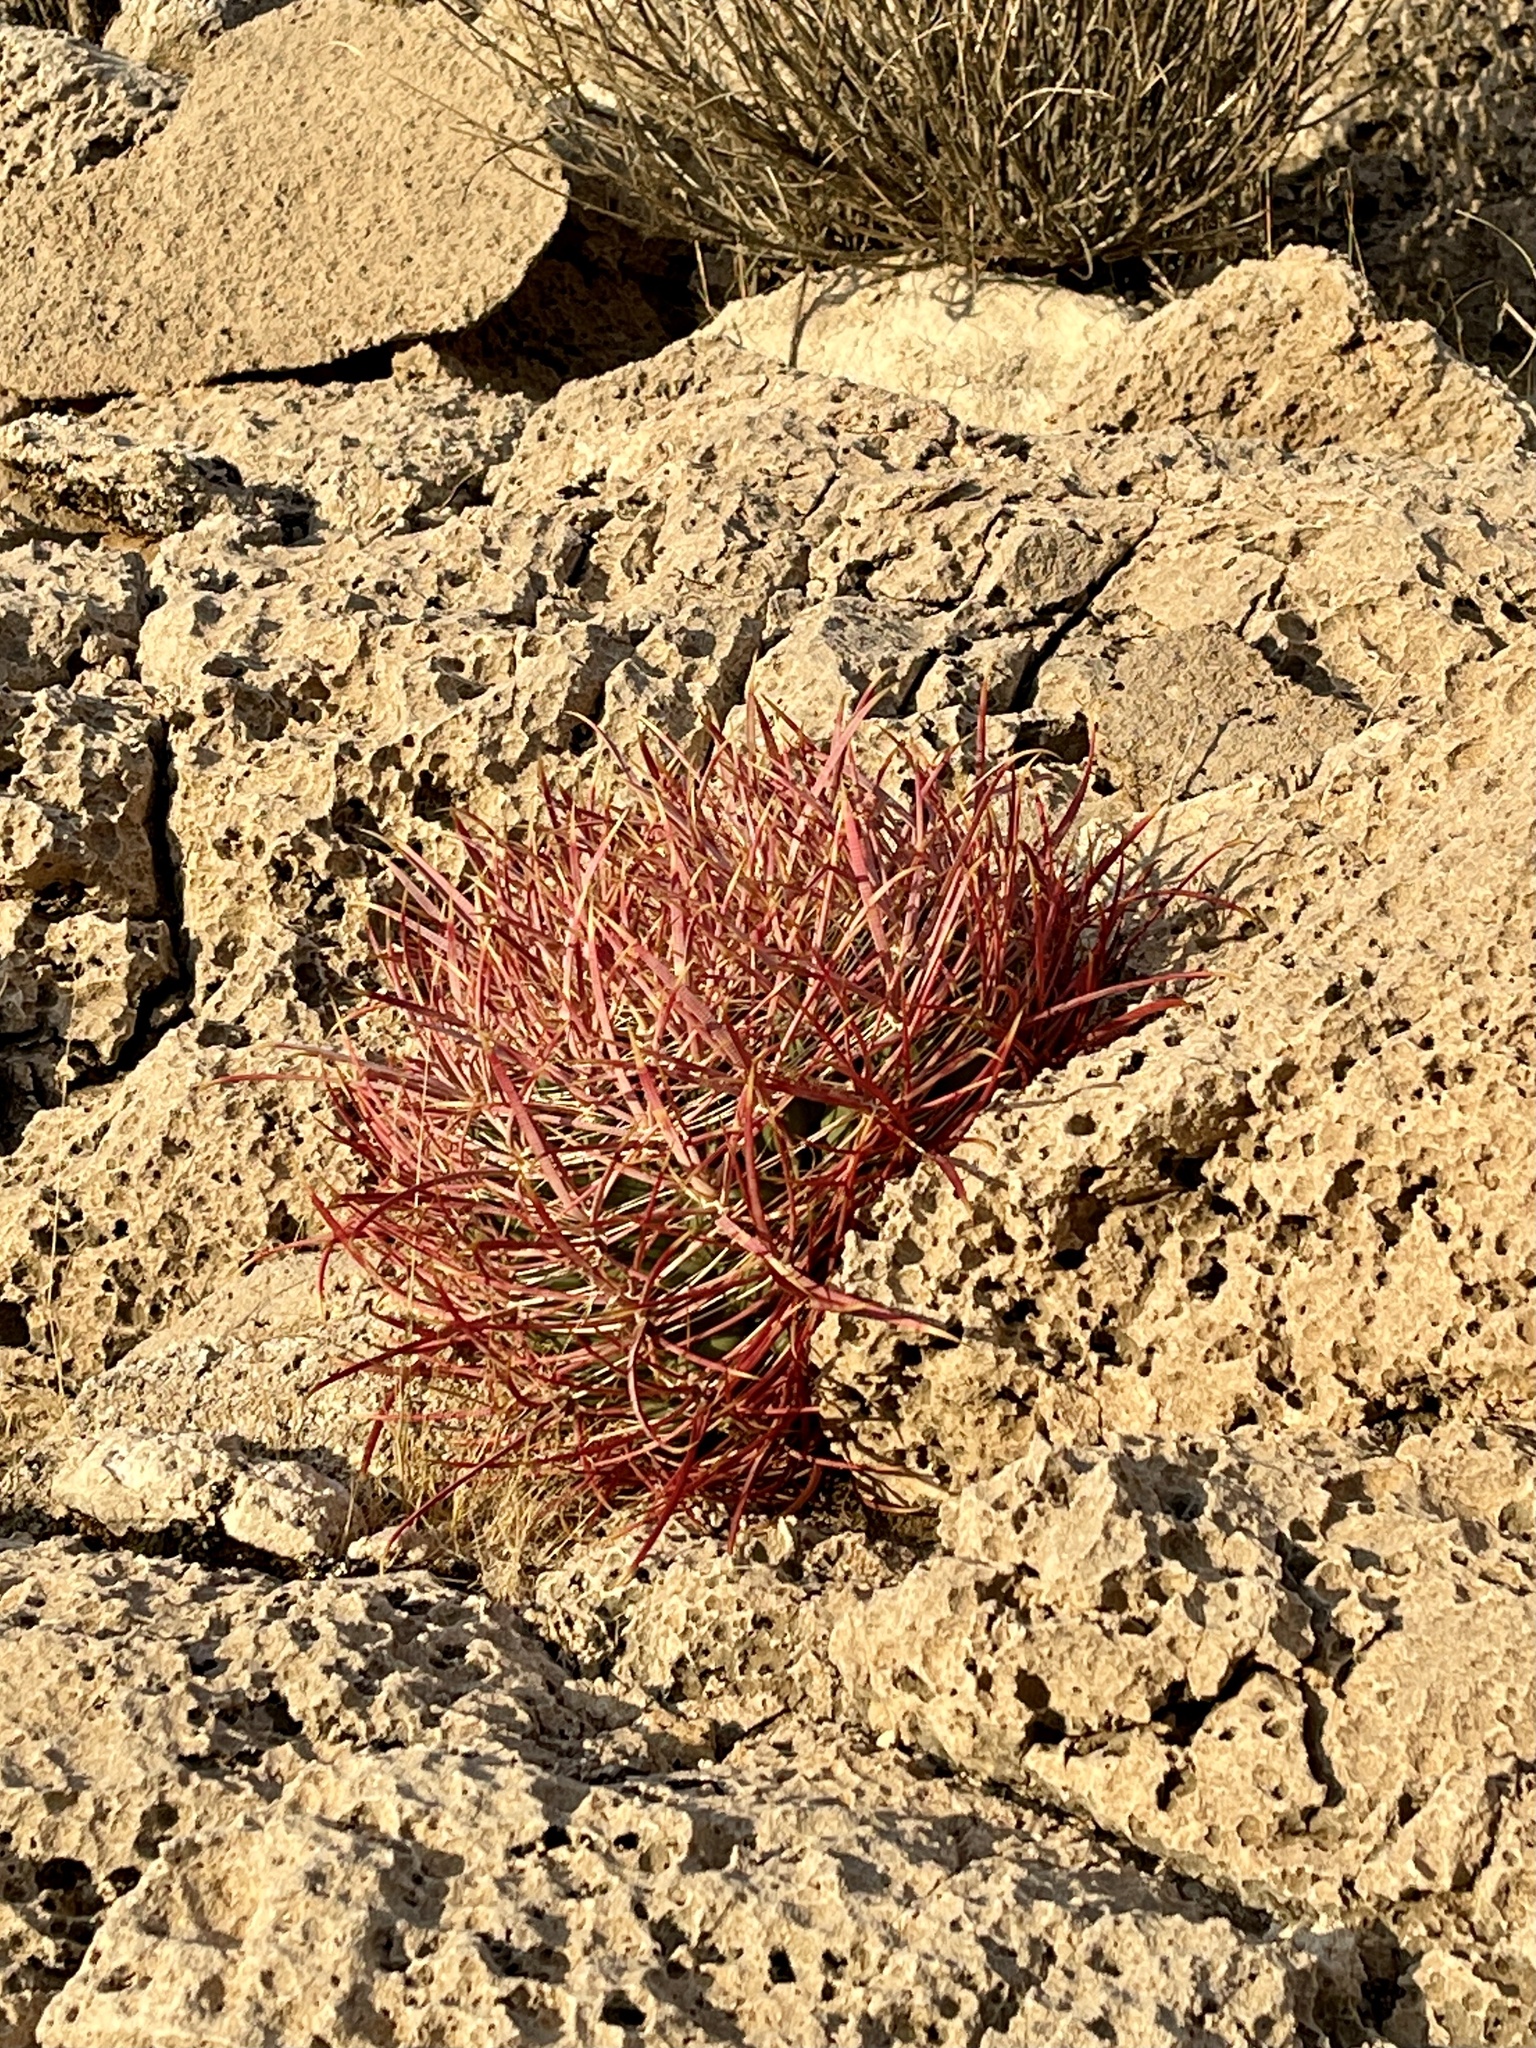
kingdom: Plantae
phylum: Tracheophyta
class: Magnoliopsida
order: Caryophyllales
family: Cactaceae
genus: Ferocactus
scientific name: Ferocactus cylindraceus
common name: California barrel cactus
